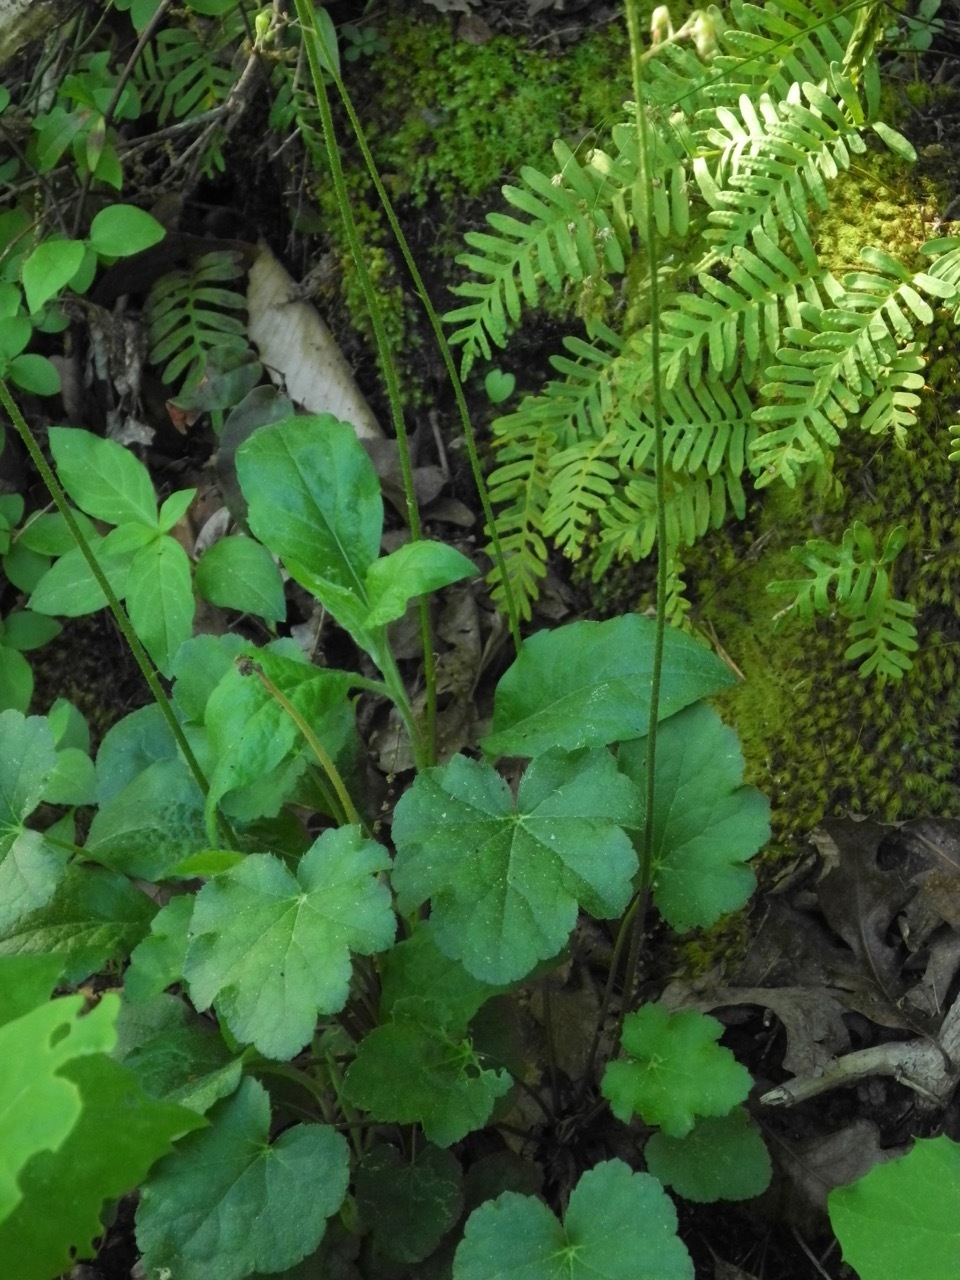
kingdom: Plantae
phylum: Tracheophyta
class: Magnoliopsida
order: Saxifragales
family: Saxifragaceae
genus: Heuchera
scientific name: Heuchera americana
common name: Alumroot
